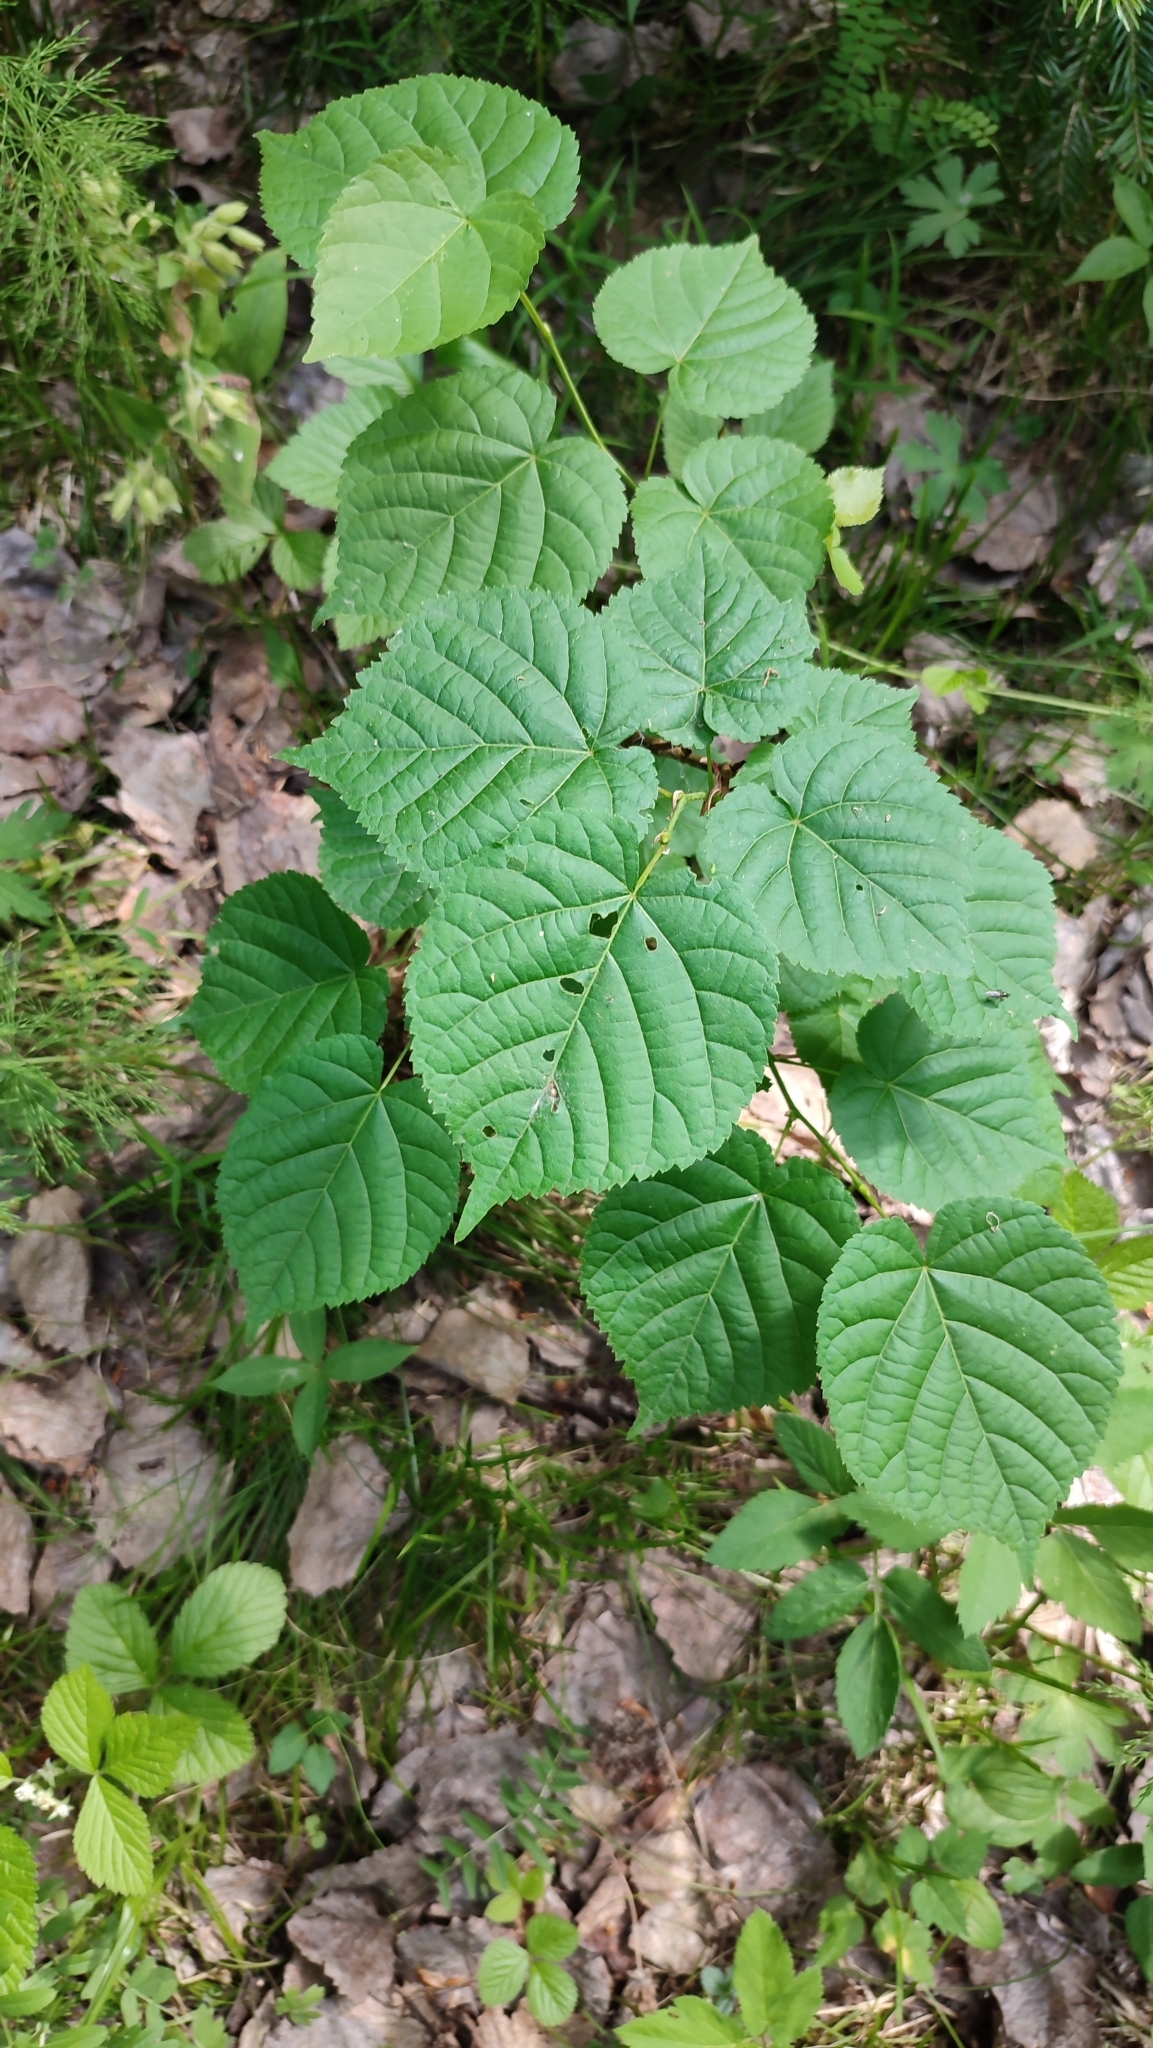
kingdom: Plantae
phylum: Tracheophyta
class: Magnoliopsida
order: Malvales
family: Malvaceae
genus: Tilia
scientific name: Tilia cordata
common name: Small-leaved lime
